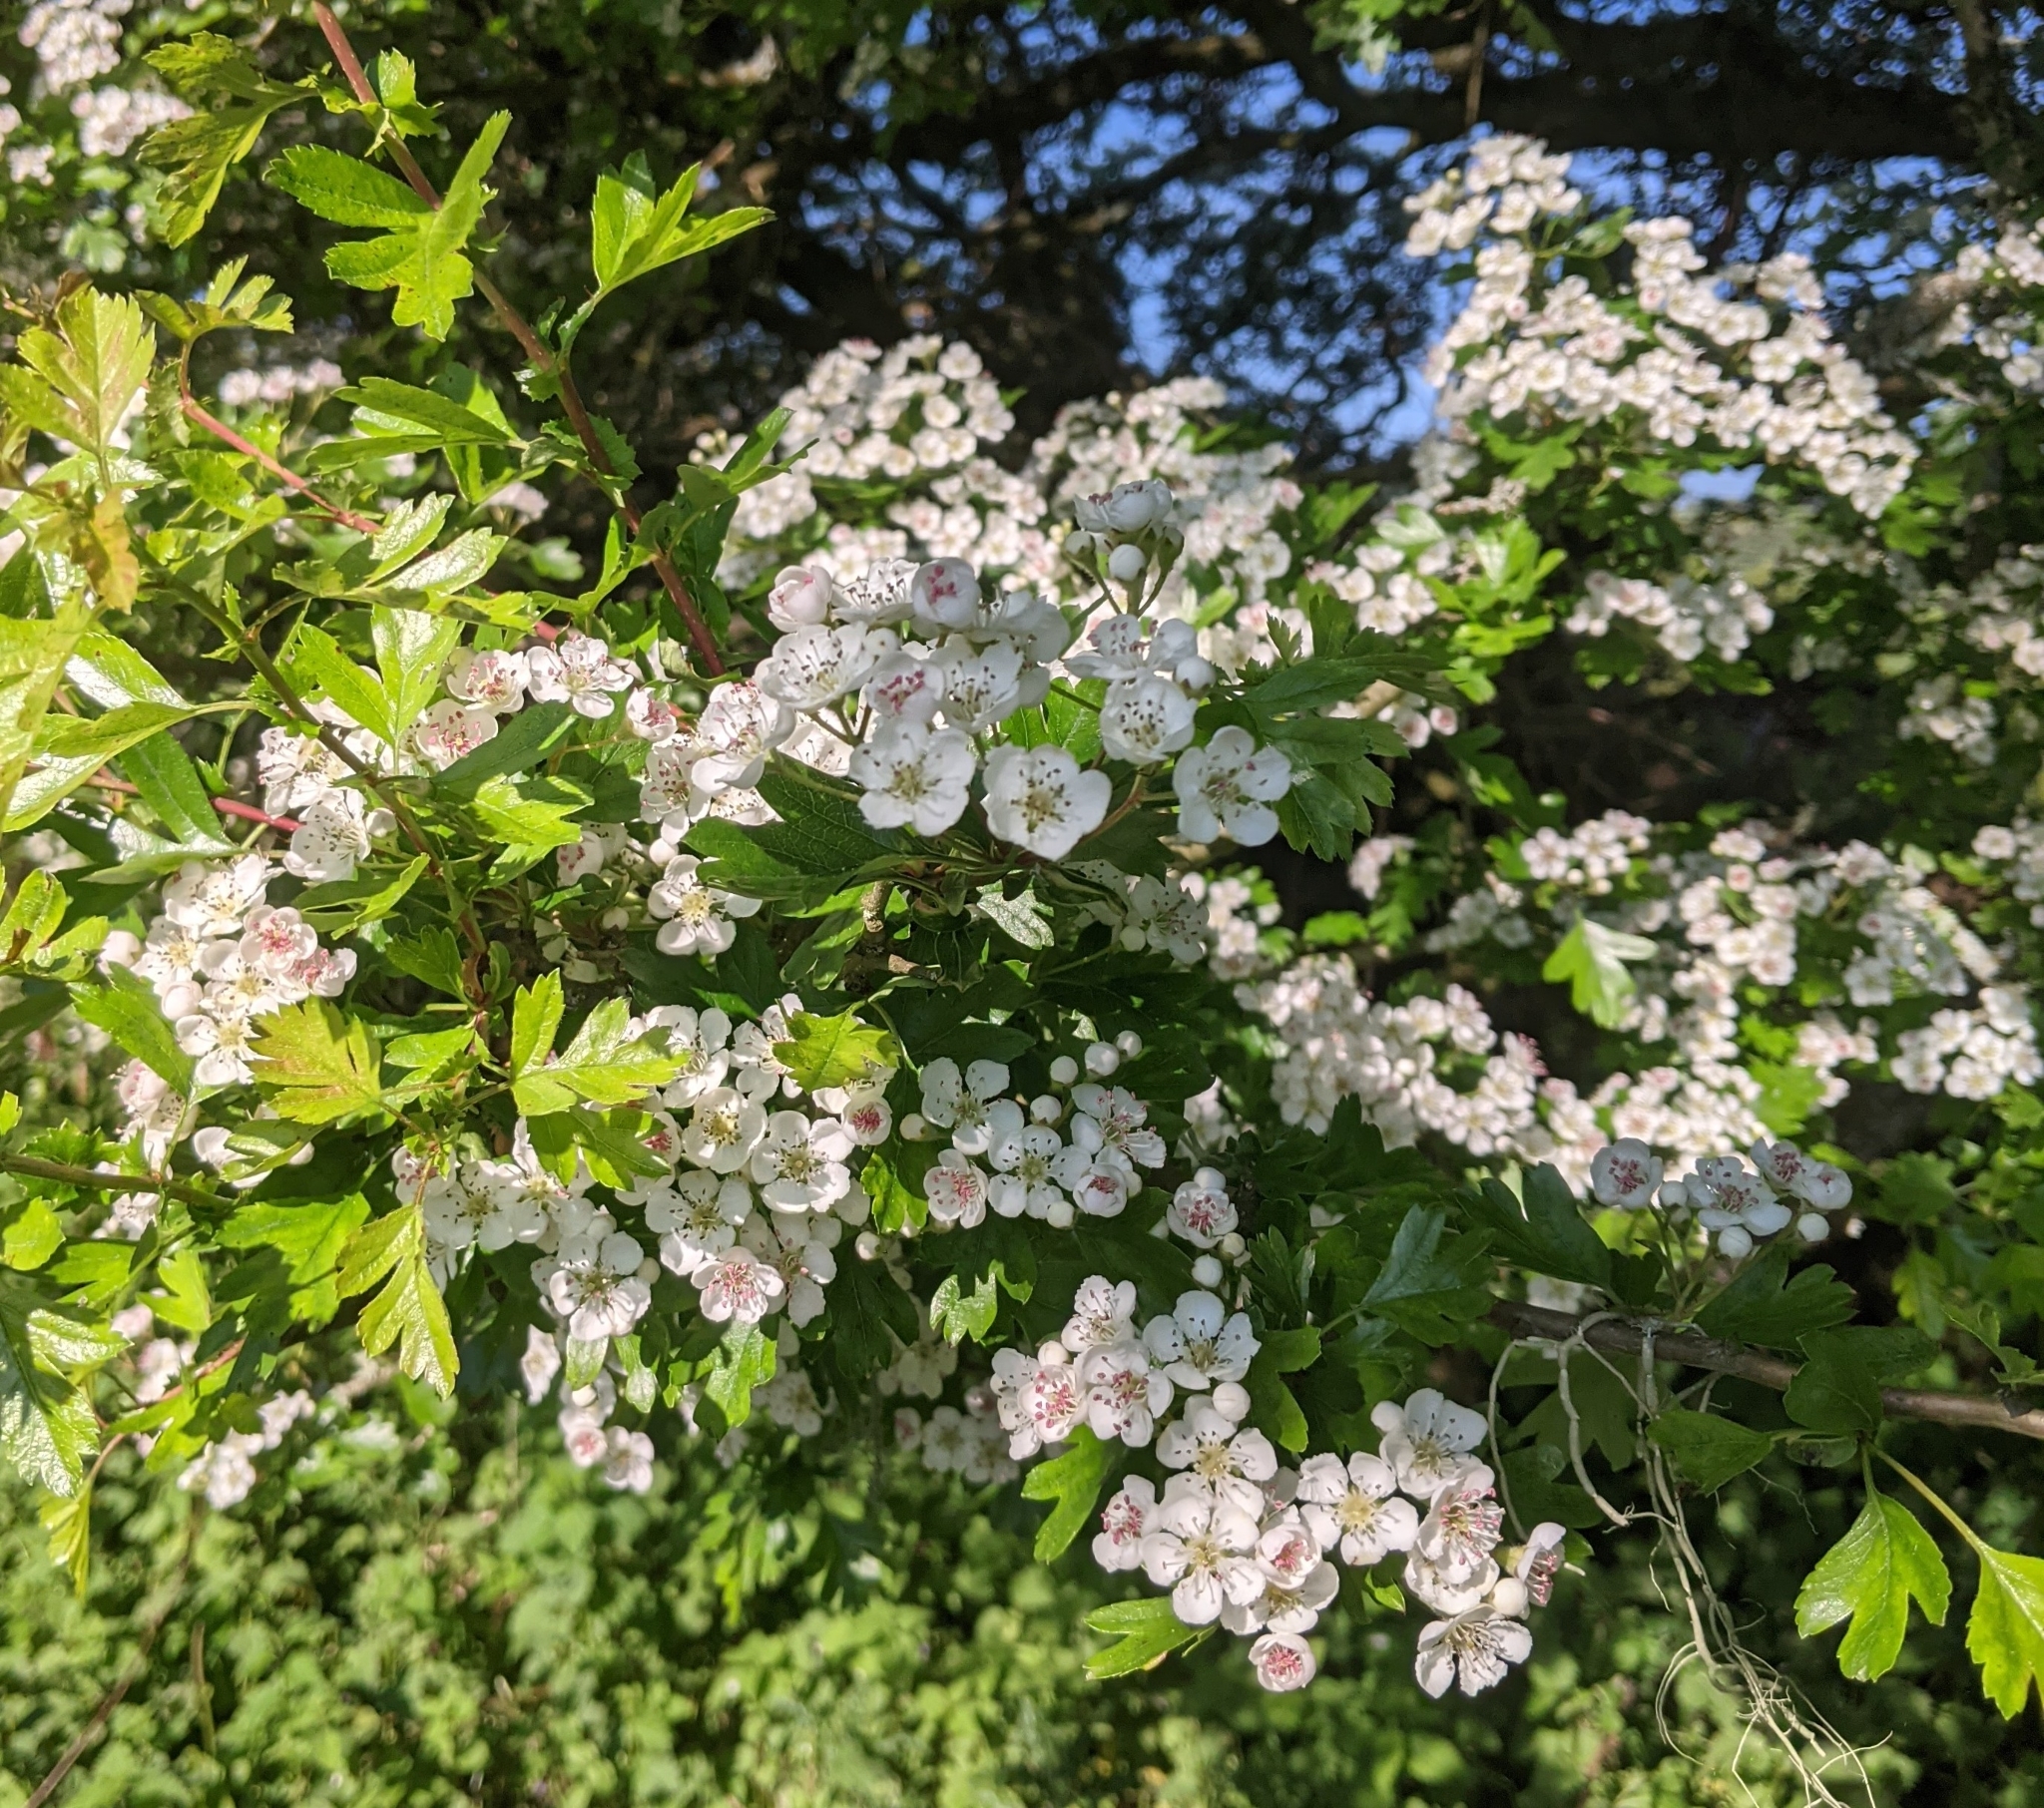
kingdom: Plantae
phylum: Tracheophyta
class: Magnoliopsida
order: Rosales
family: Rosaceae
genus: Crataegus
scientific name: Crataegus monogyna
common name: Hawthorn
